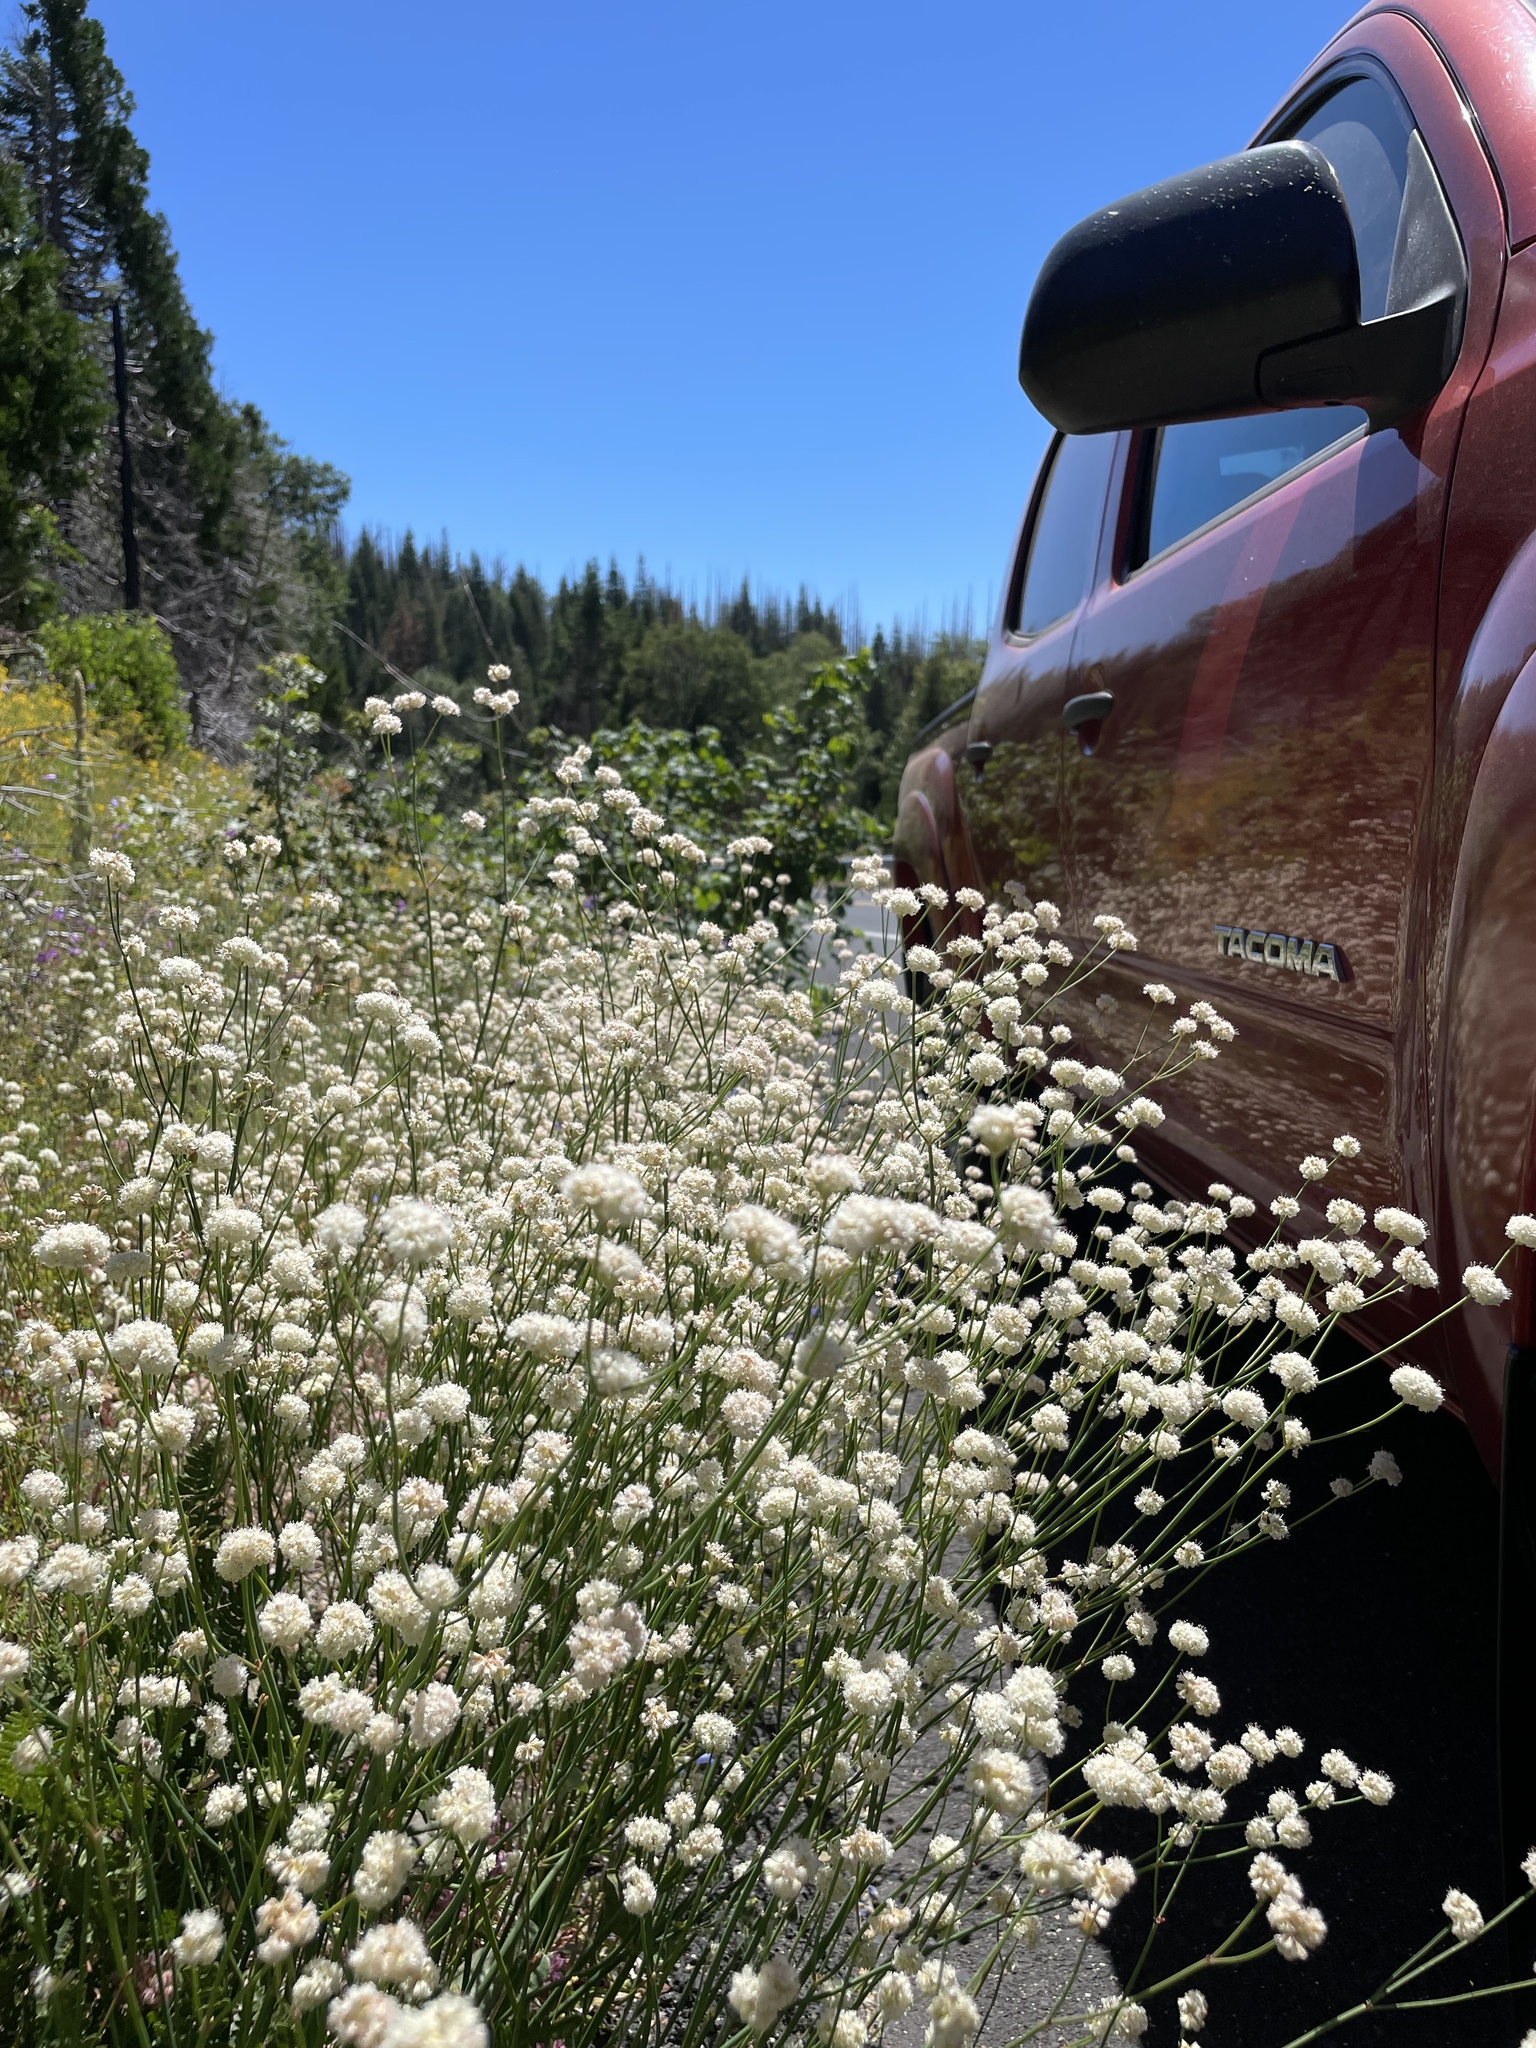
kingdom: Plantae
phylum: Tracheophyta
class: Magnoliopsida
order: Caryophyllales
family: Polygonaceae
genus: Eriogonum
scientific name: Eriogonum nudum
